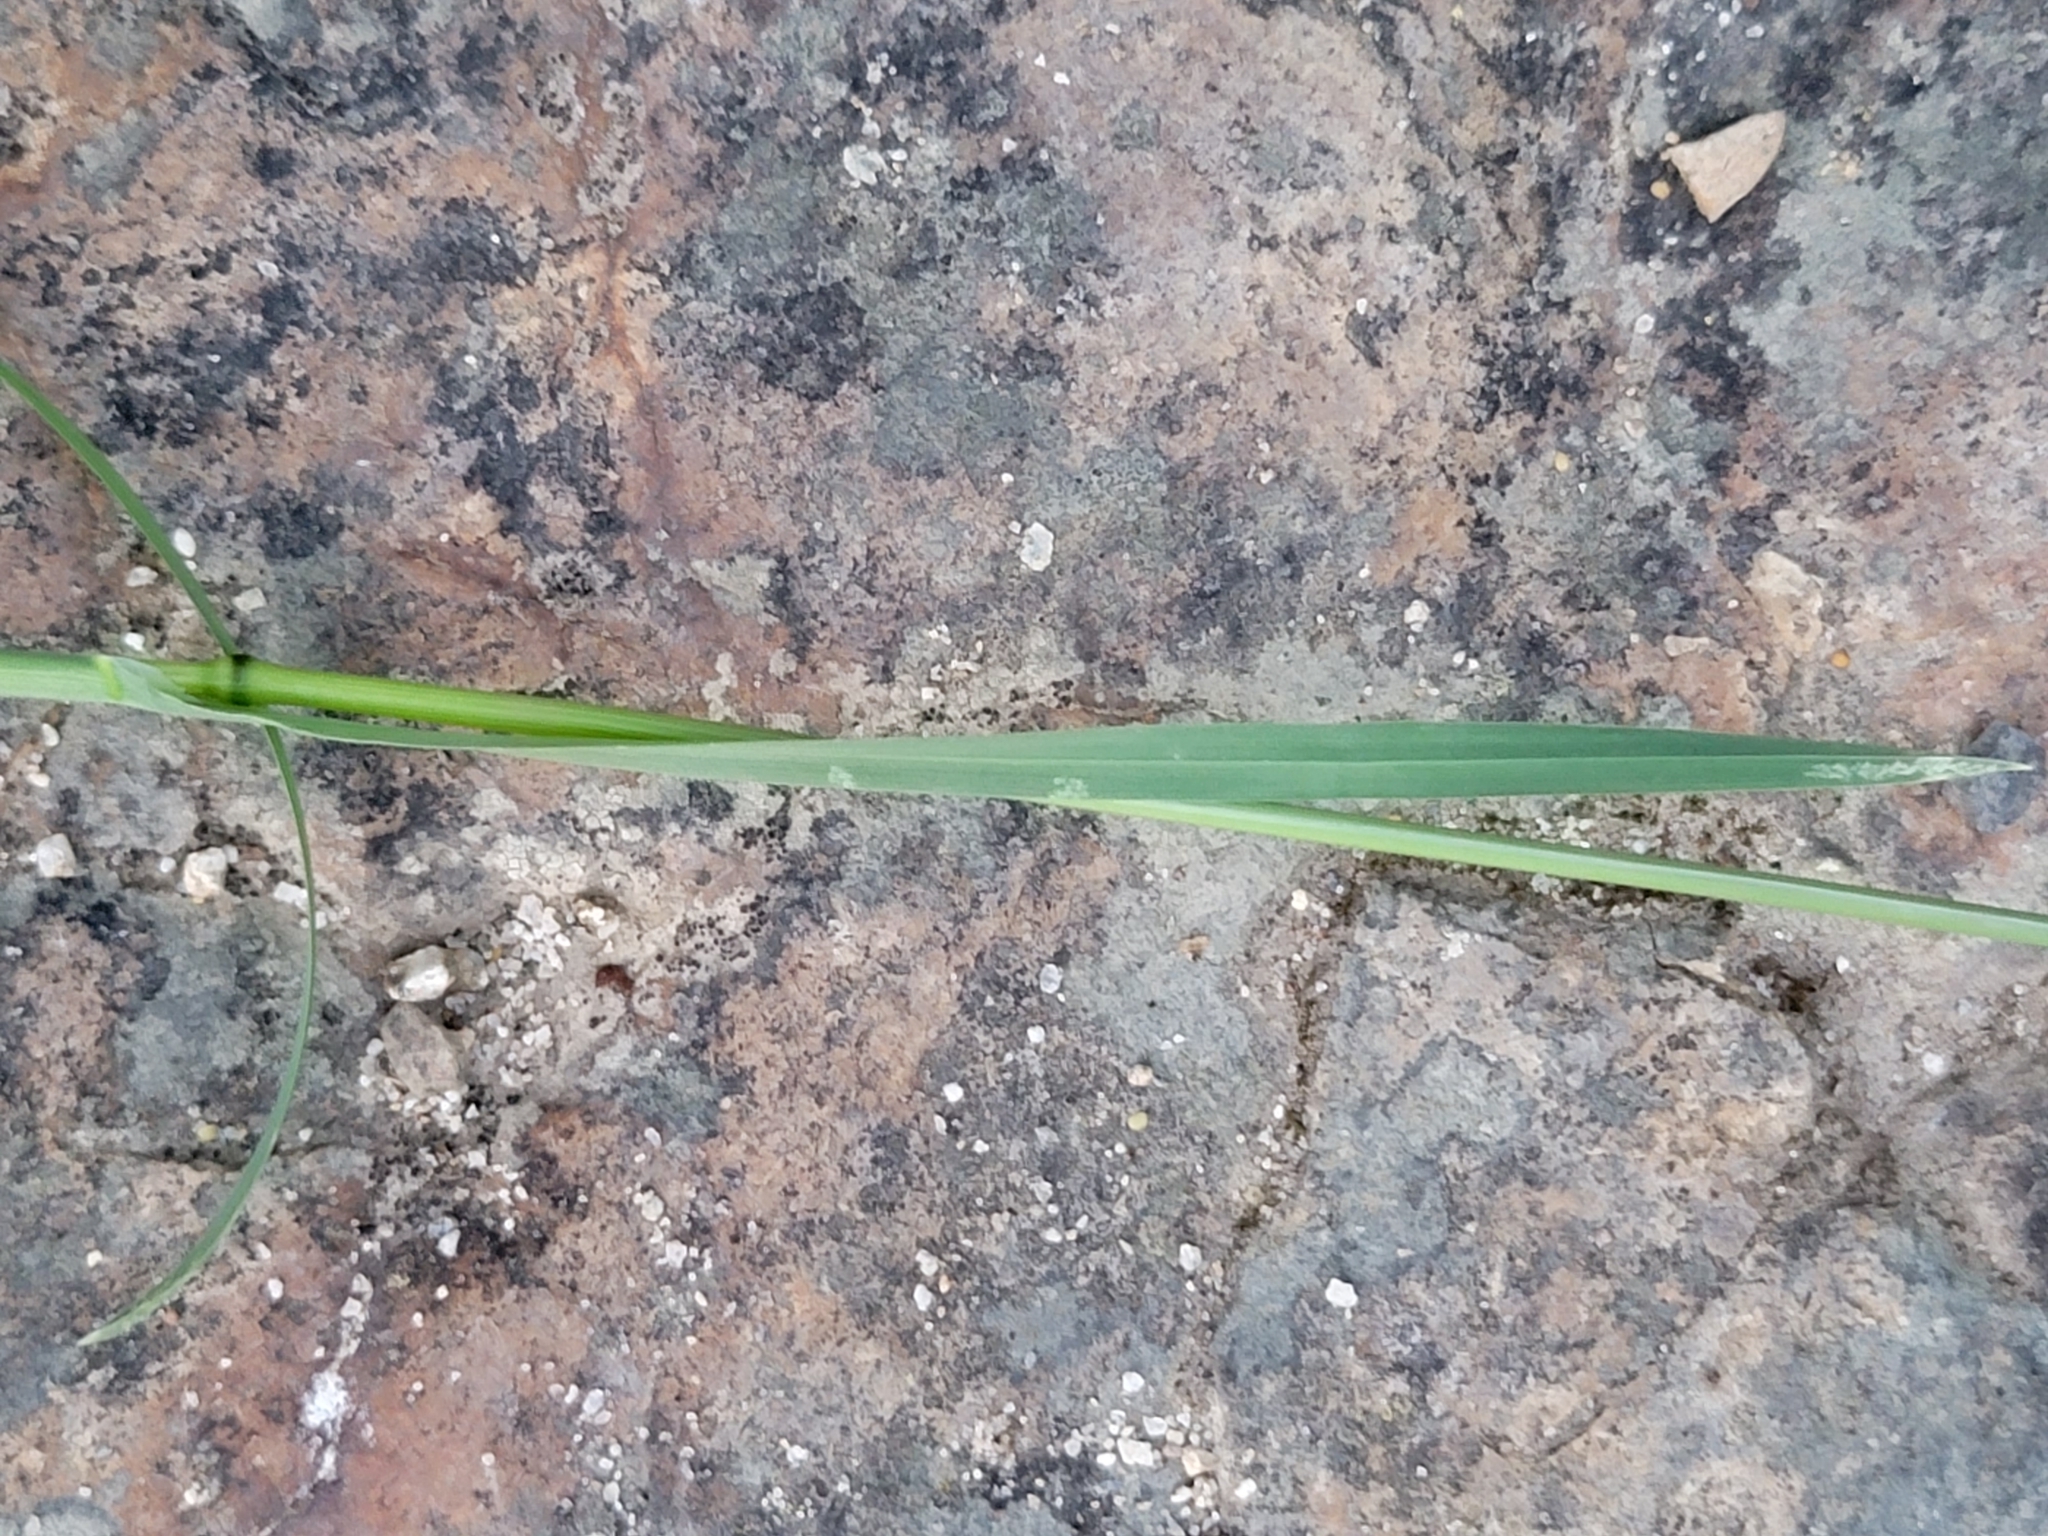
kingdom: Plantae
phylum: Tracheophyta
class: Liliopsida
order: Poales
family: Poaceae
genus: Poa
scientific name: Poa bulbosa
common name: Bulbous bluegrass
